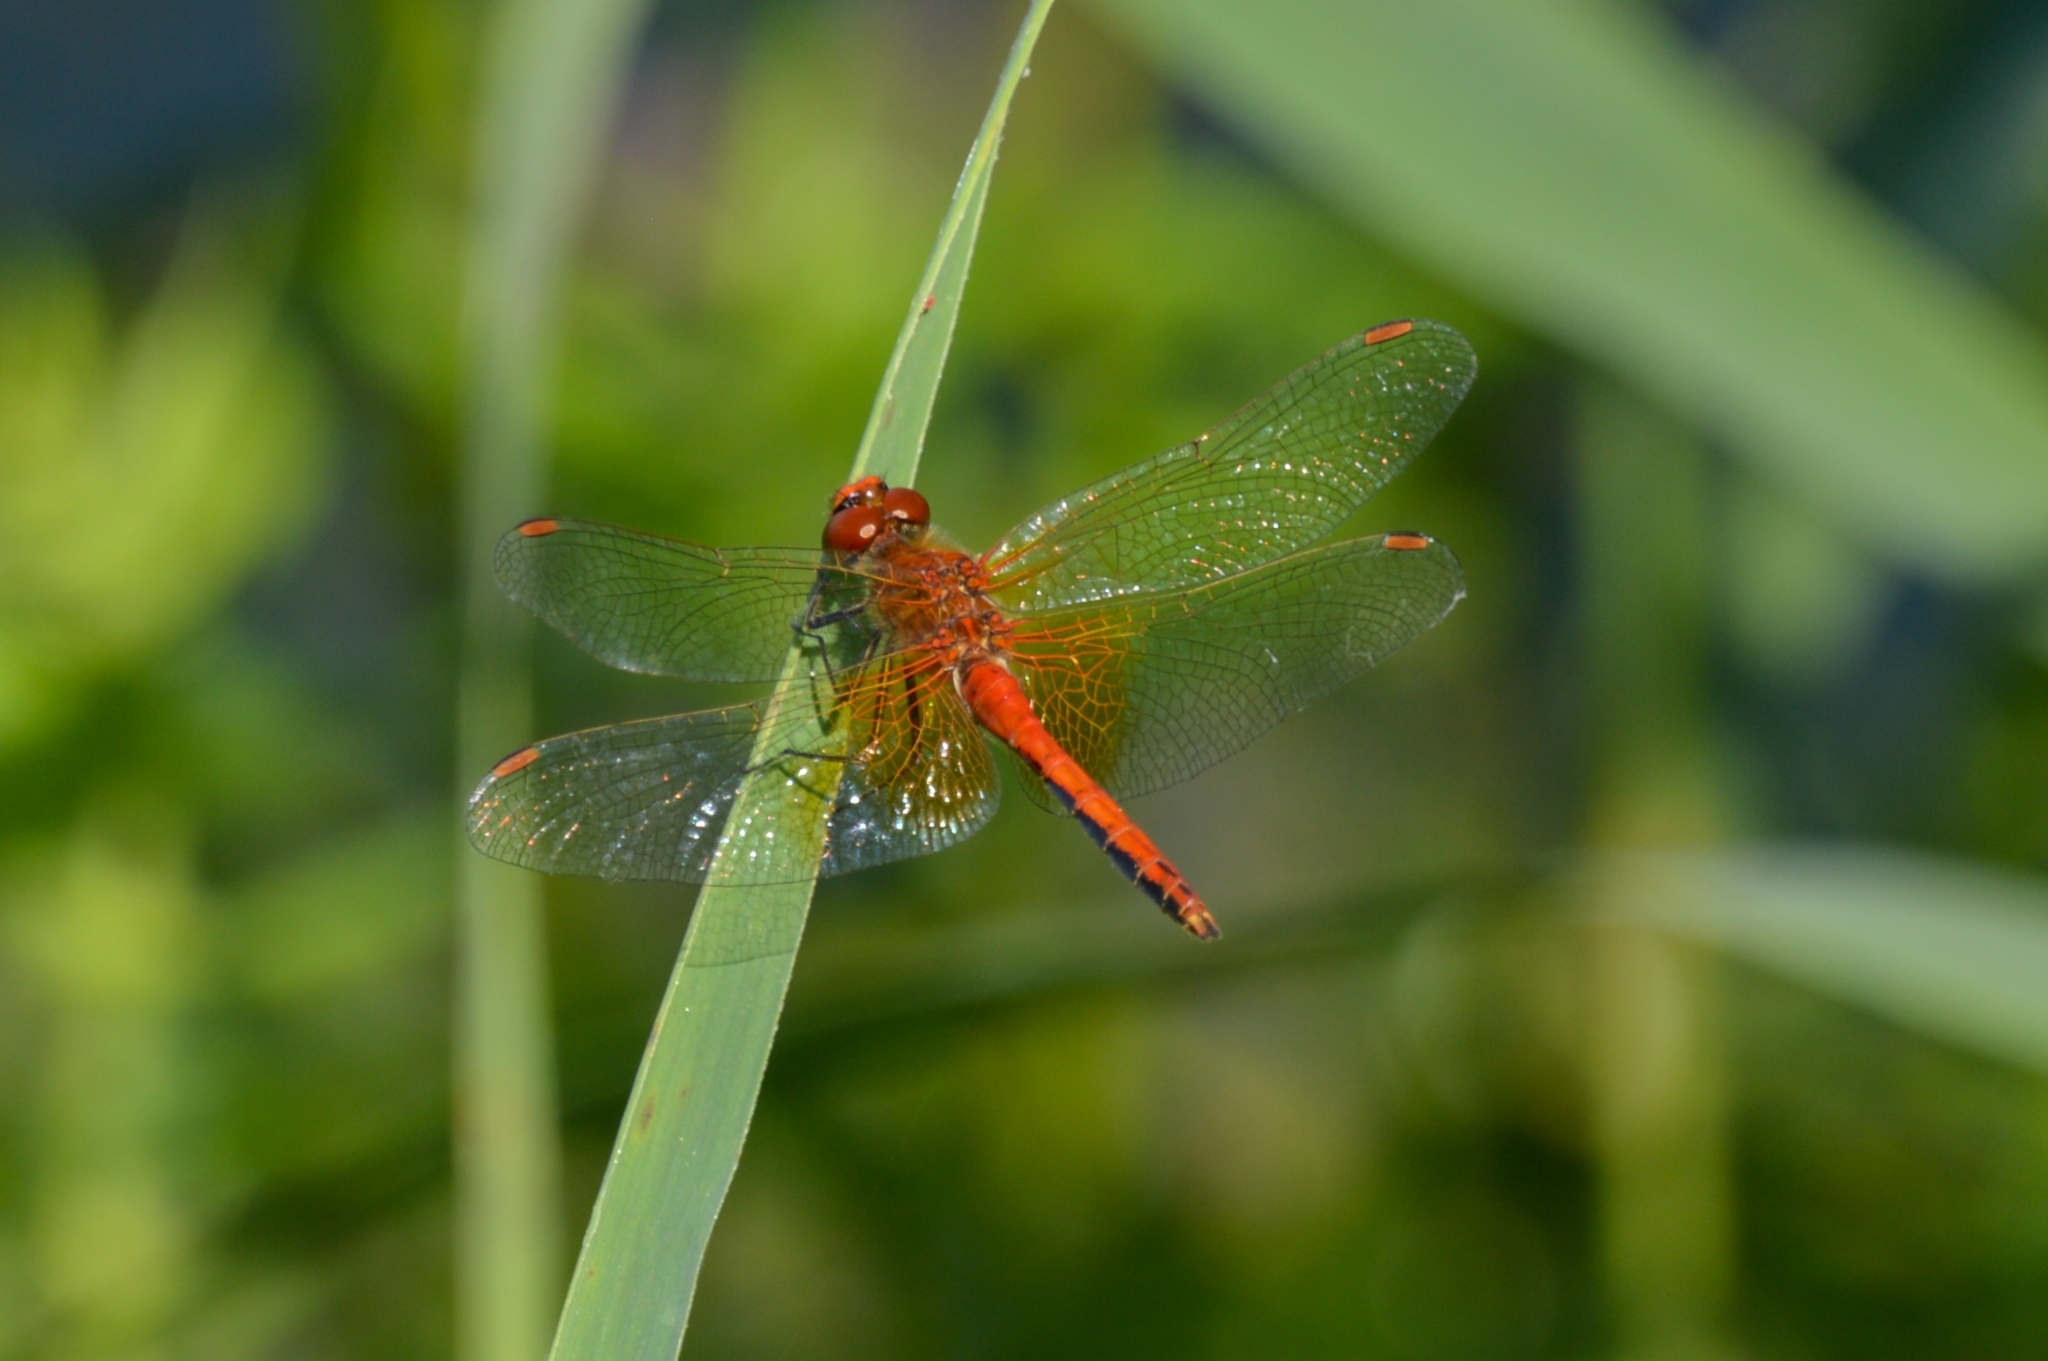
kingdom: Animalia
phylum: Arthropoda
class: Insecta
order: Odonata
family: Libellulidae
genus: Sympetrum
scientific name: Sympetrum flaveolum
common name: Yellow-winged darter
